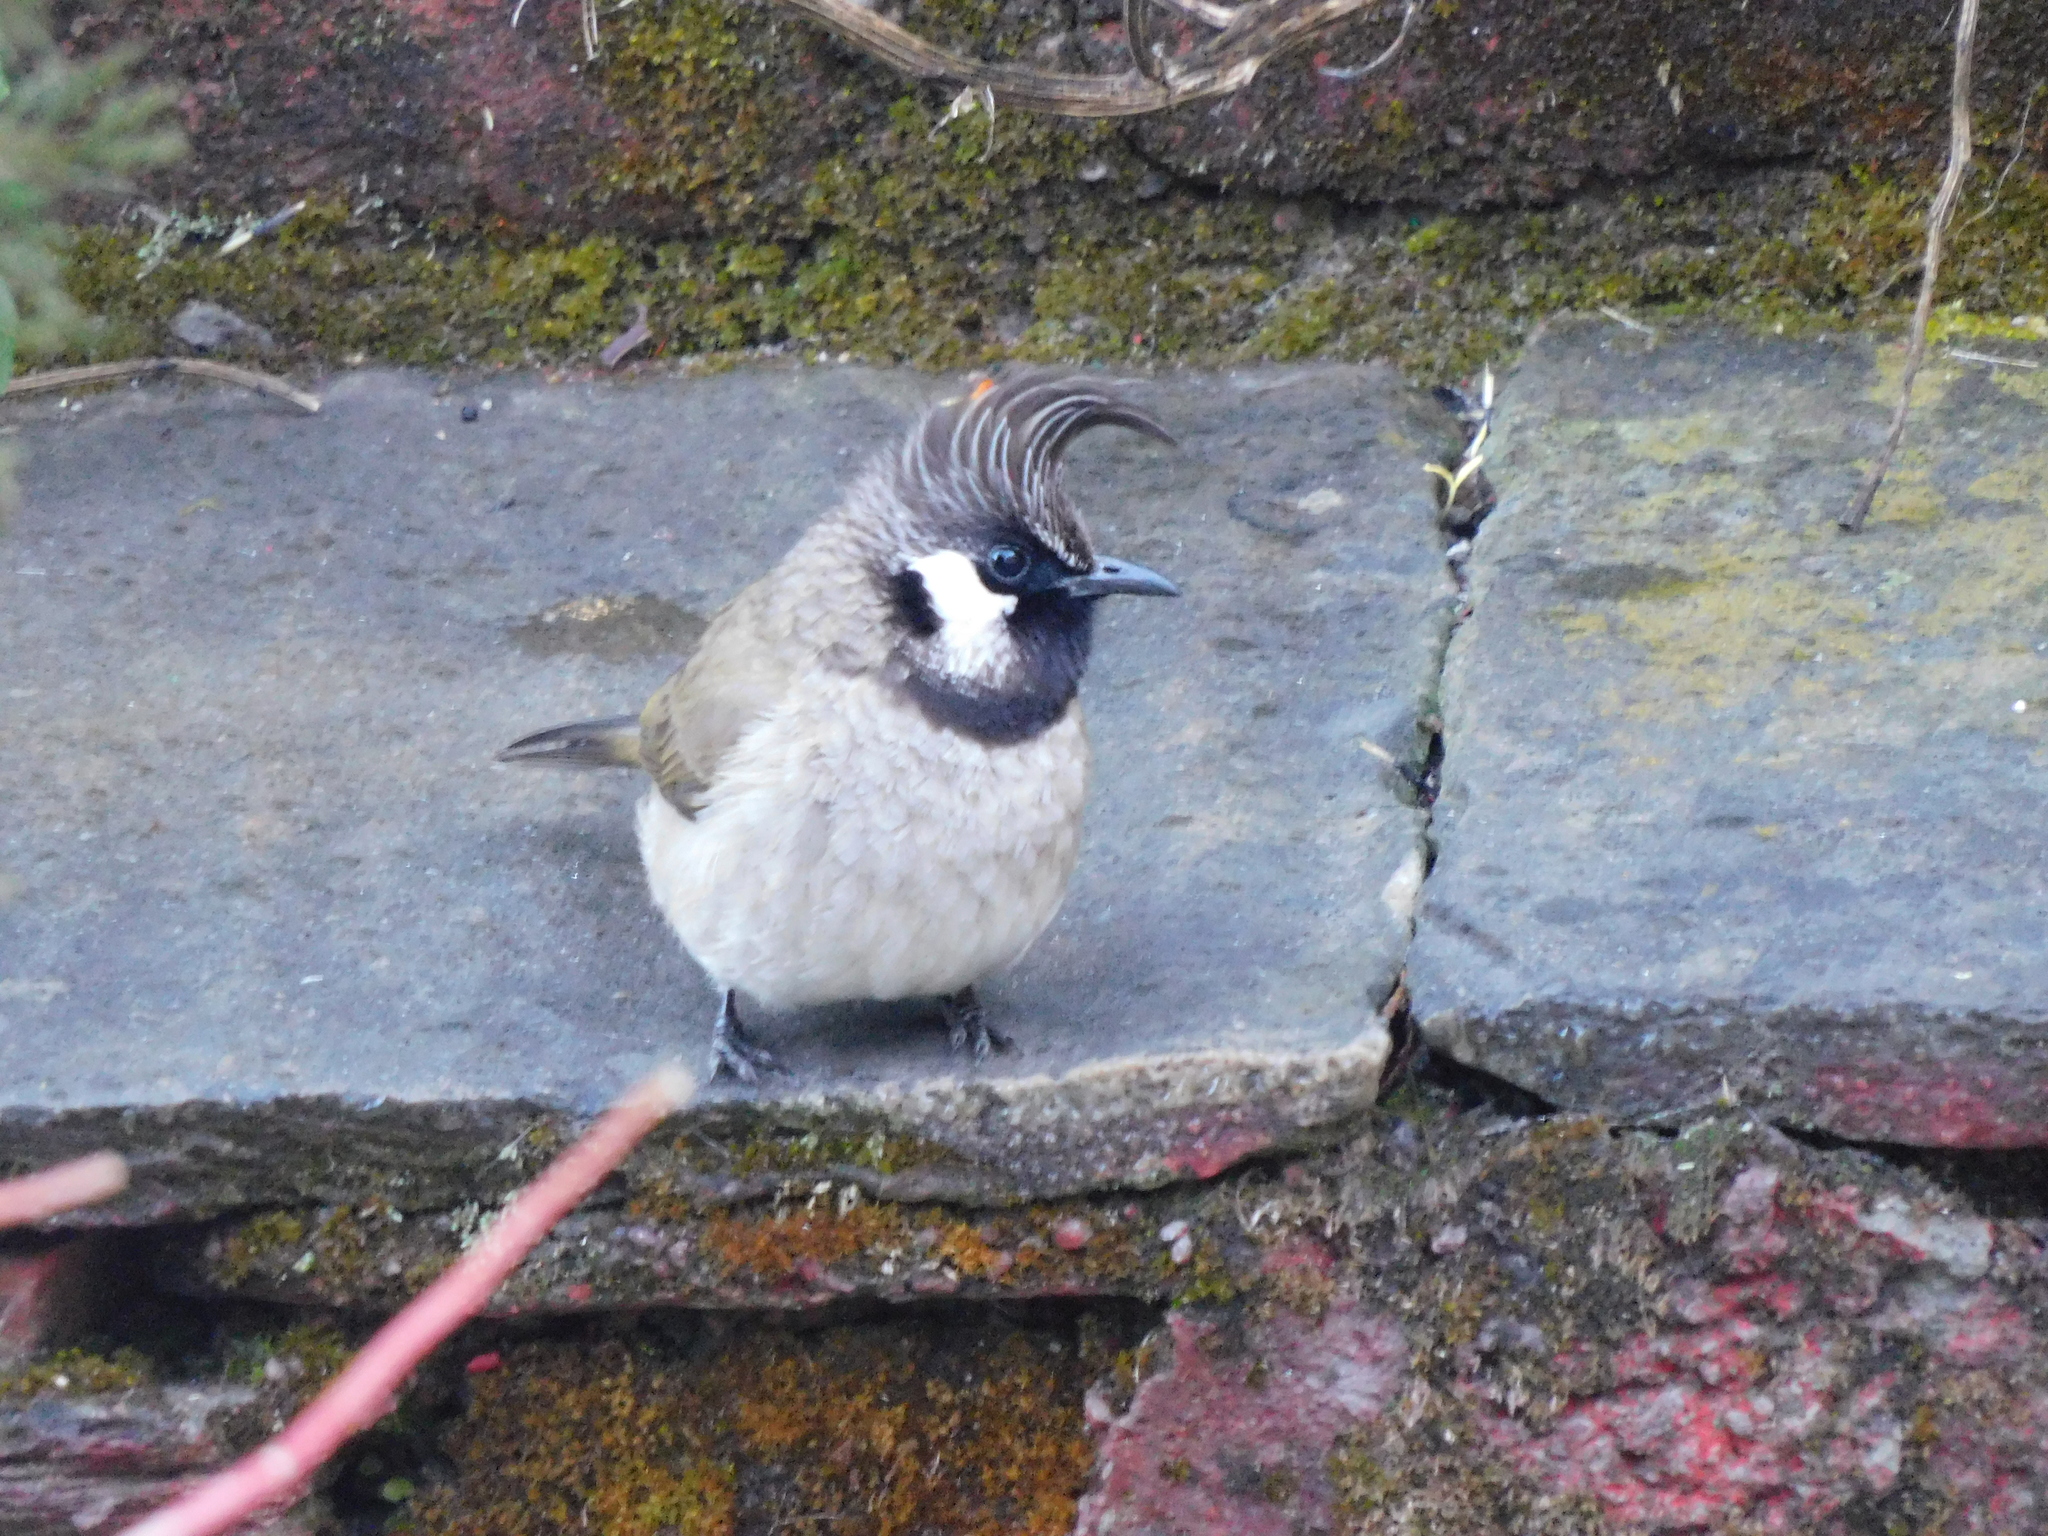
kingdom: Animalia
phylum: Chordata
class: Aves
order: Passeriformes
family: Pycnonotidae
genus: Pycnonotus
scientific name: Pycnonotus leucogenys
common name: Himalayan bulbul
